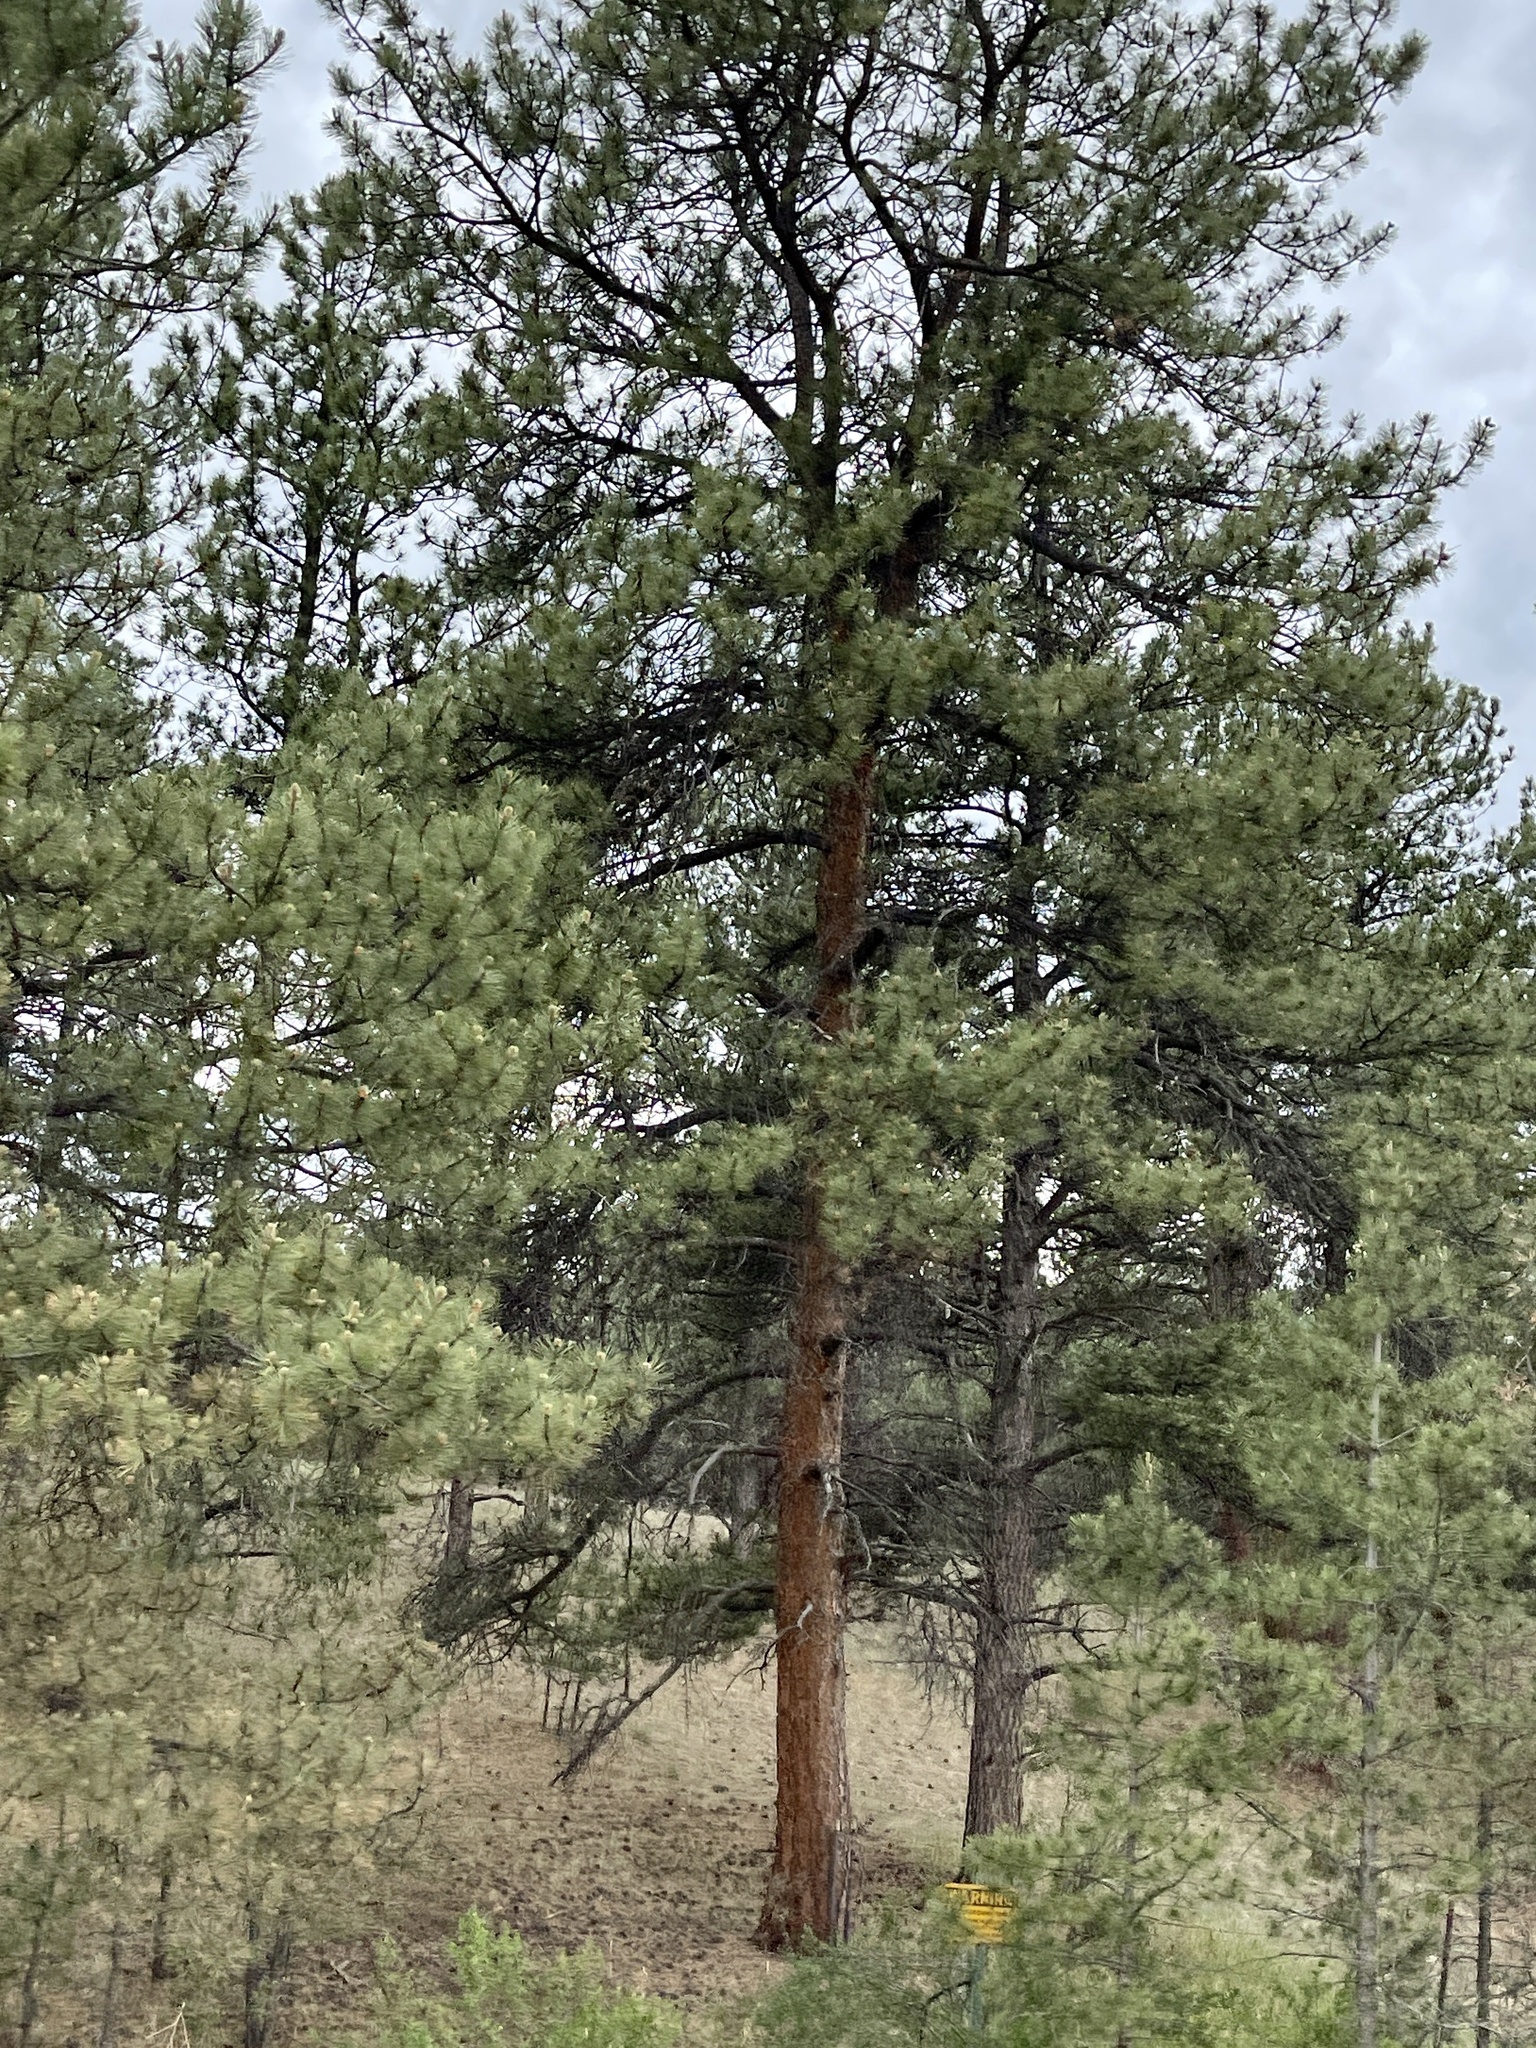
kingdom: Plantae
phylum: Tracheophyta
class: Pinopsida
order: Pinales
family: Pinaceae
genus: Pinus
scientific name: Pinus ponderosa
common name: Western yellow-pine
